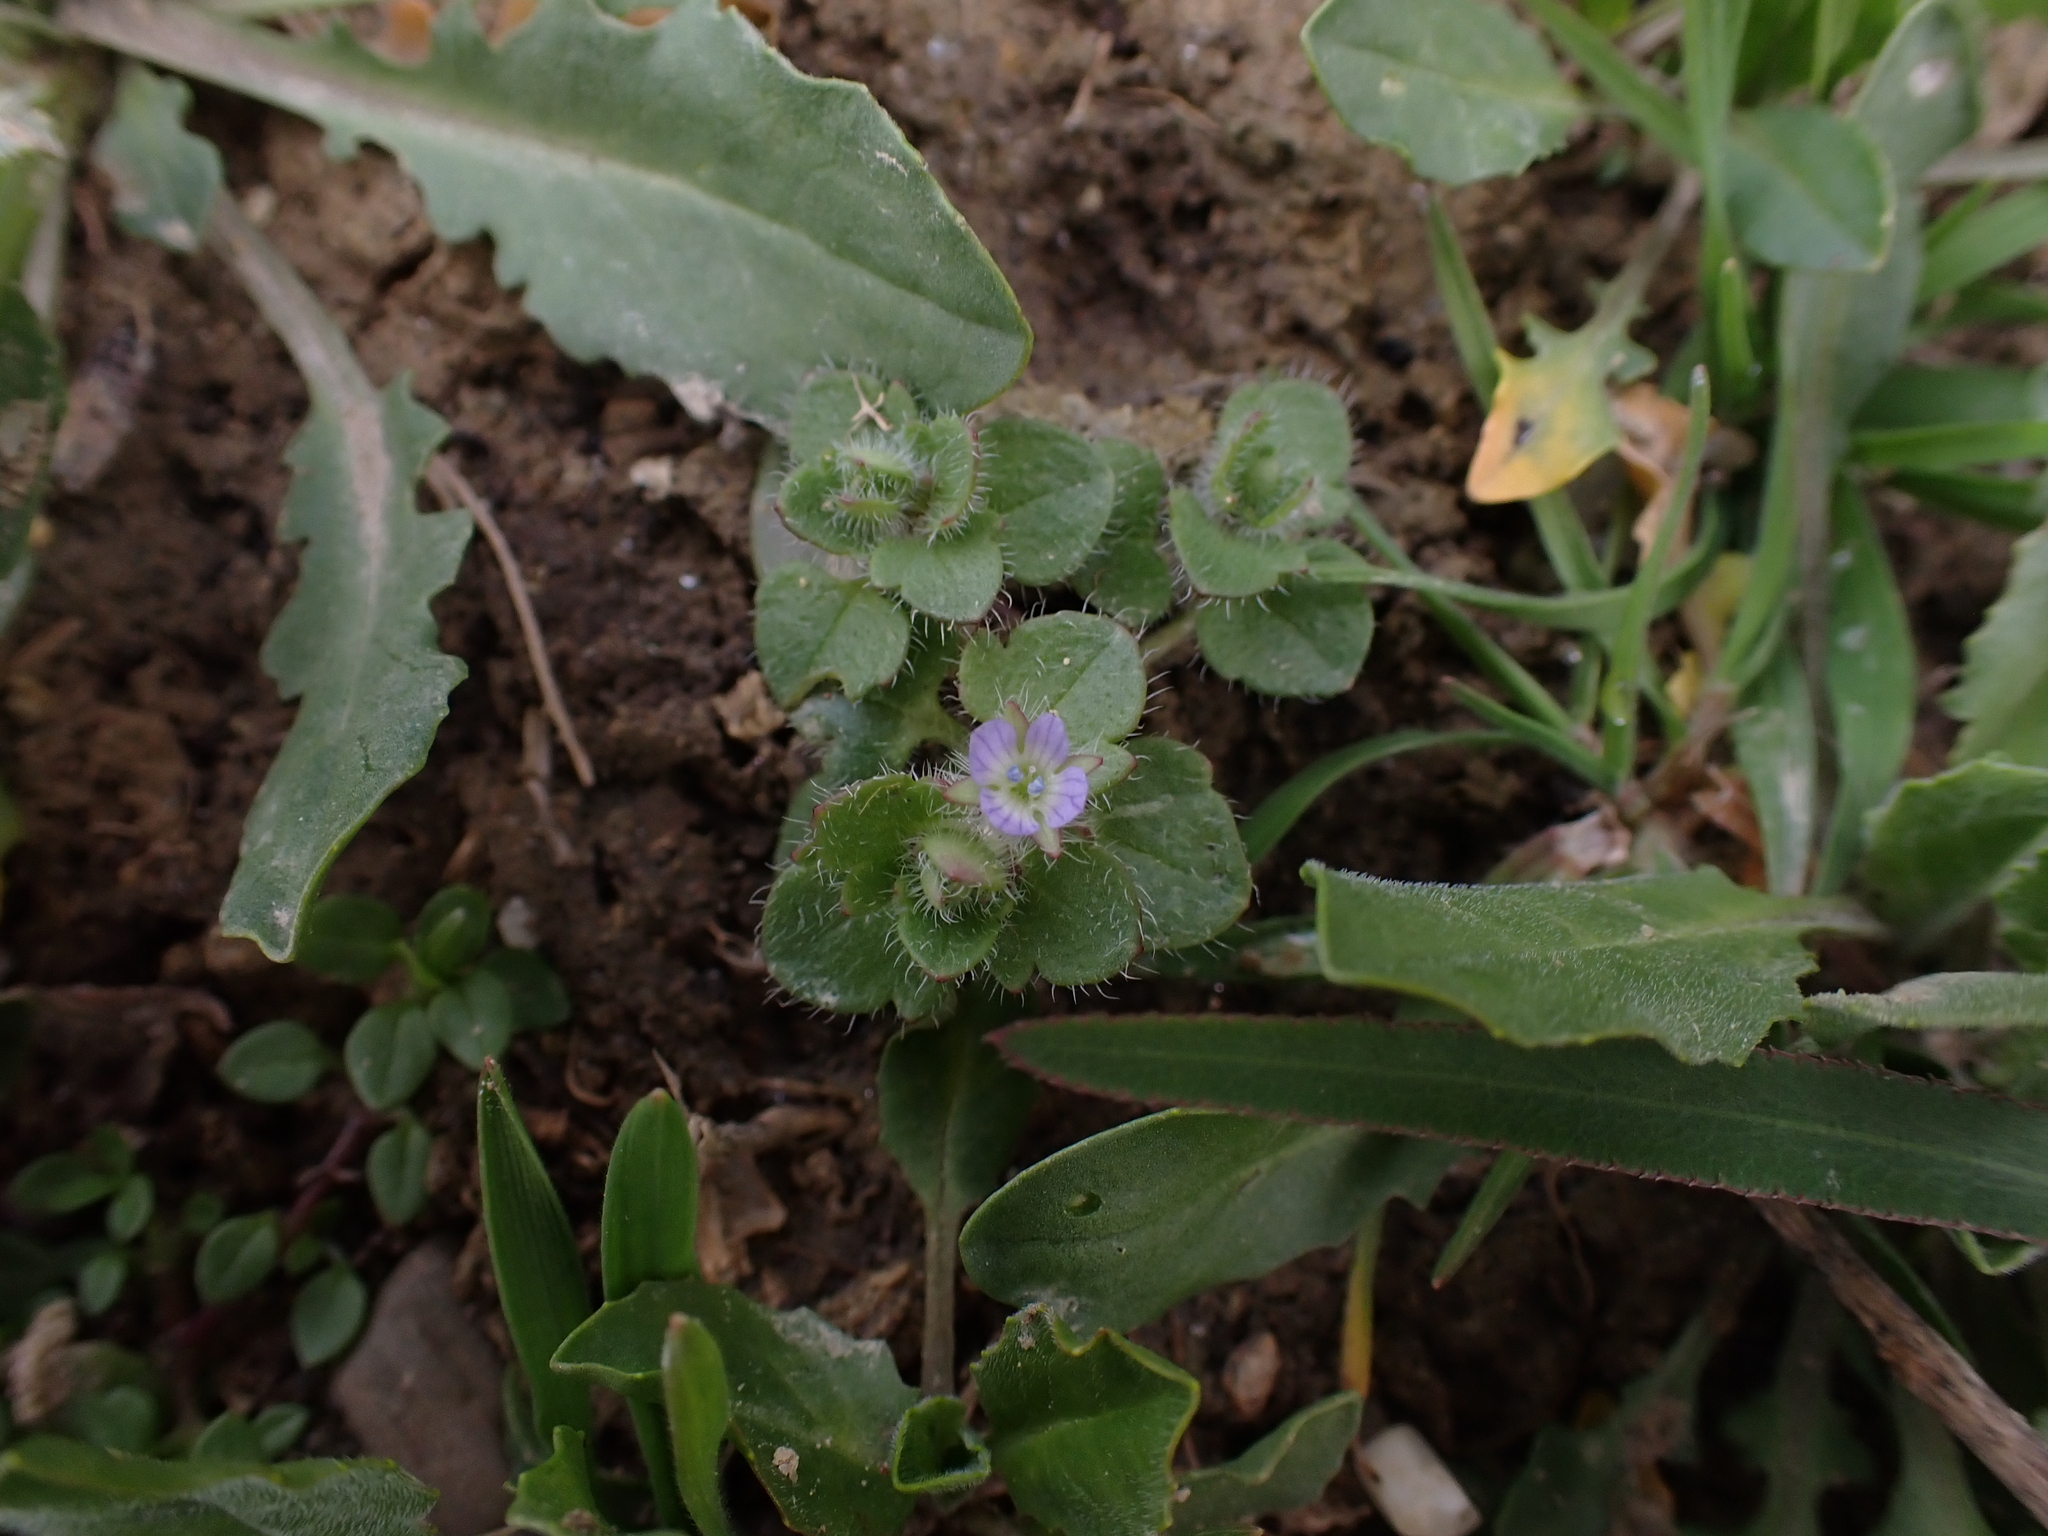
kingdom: Plantae
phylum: Tracheophyta
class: Magnoliopsida
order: Lamiales
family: Plantaginaceae
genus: Veronica
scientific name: Veronica hederifolia
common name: Ivy-leaved speedwell
